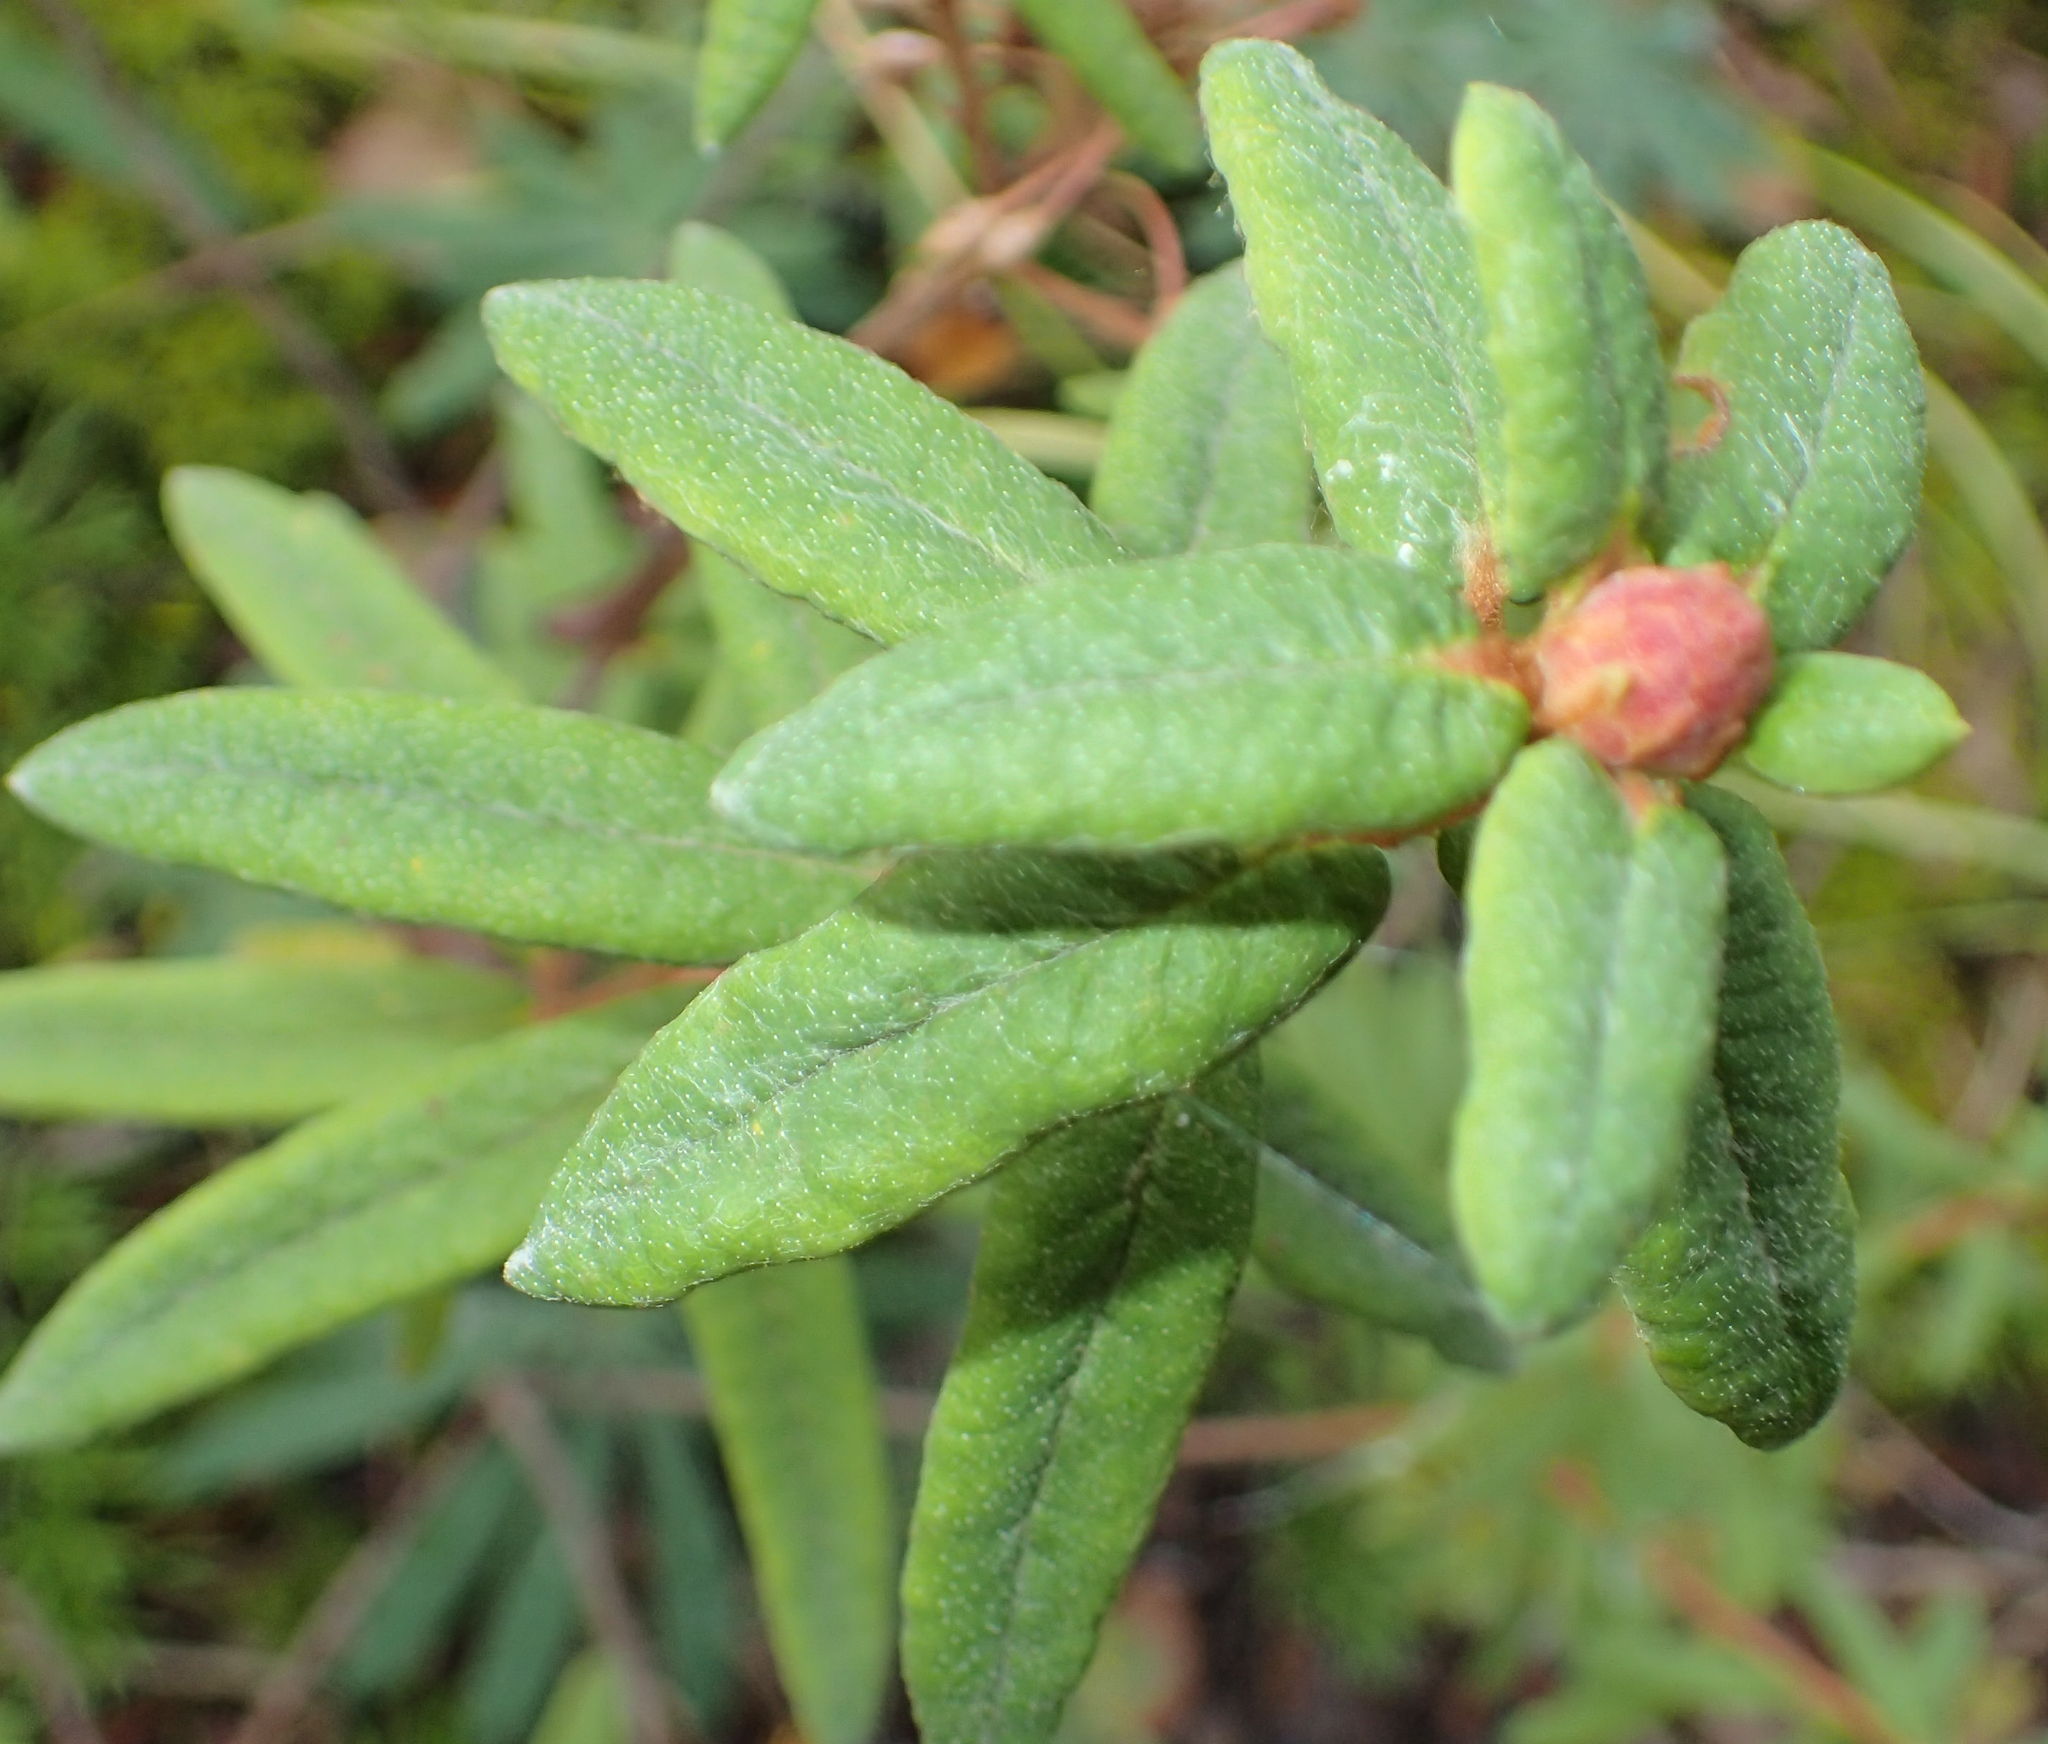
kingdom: Plantae
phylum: Tracheophyta
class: Magnoliopsida
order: Ericales
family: Ericaceae
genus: Rhododendron
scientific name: Rhododendron groenlandicum
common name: Bog labrador tea
